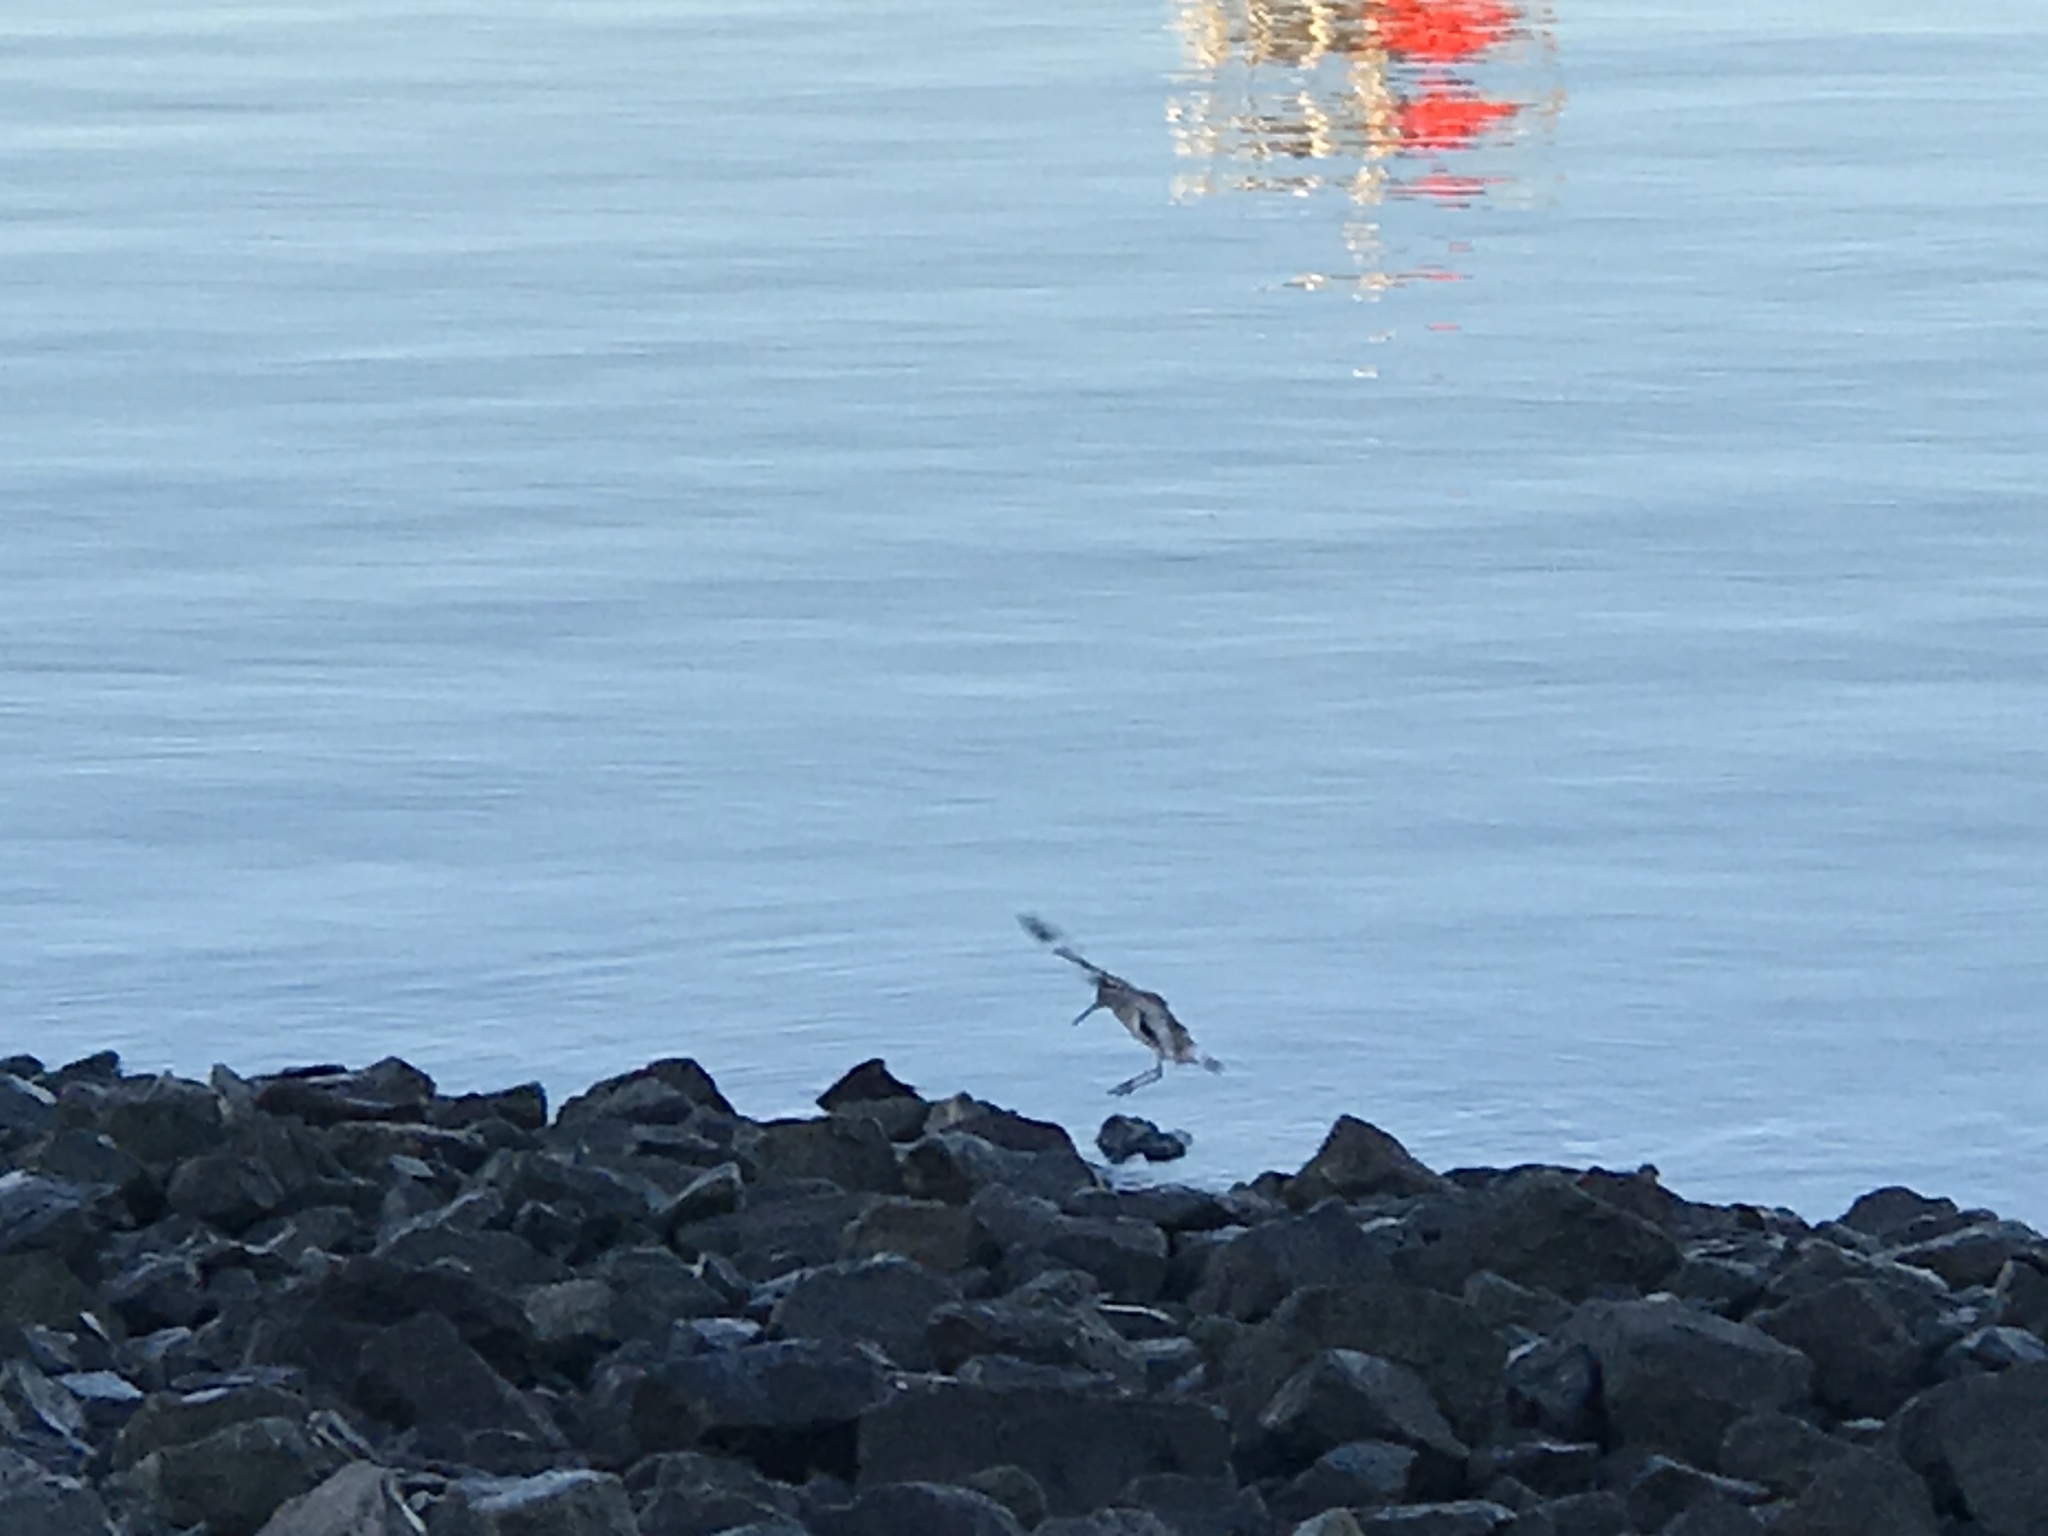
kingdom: Animalia
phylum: Chordata
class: Aves
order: Charadriiformes
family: Scolopacidae
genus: Tringa
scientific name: Tringa semipalmata
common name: Willet
